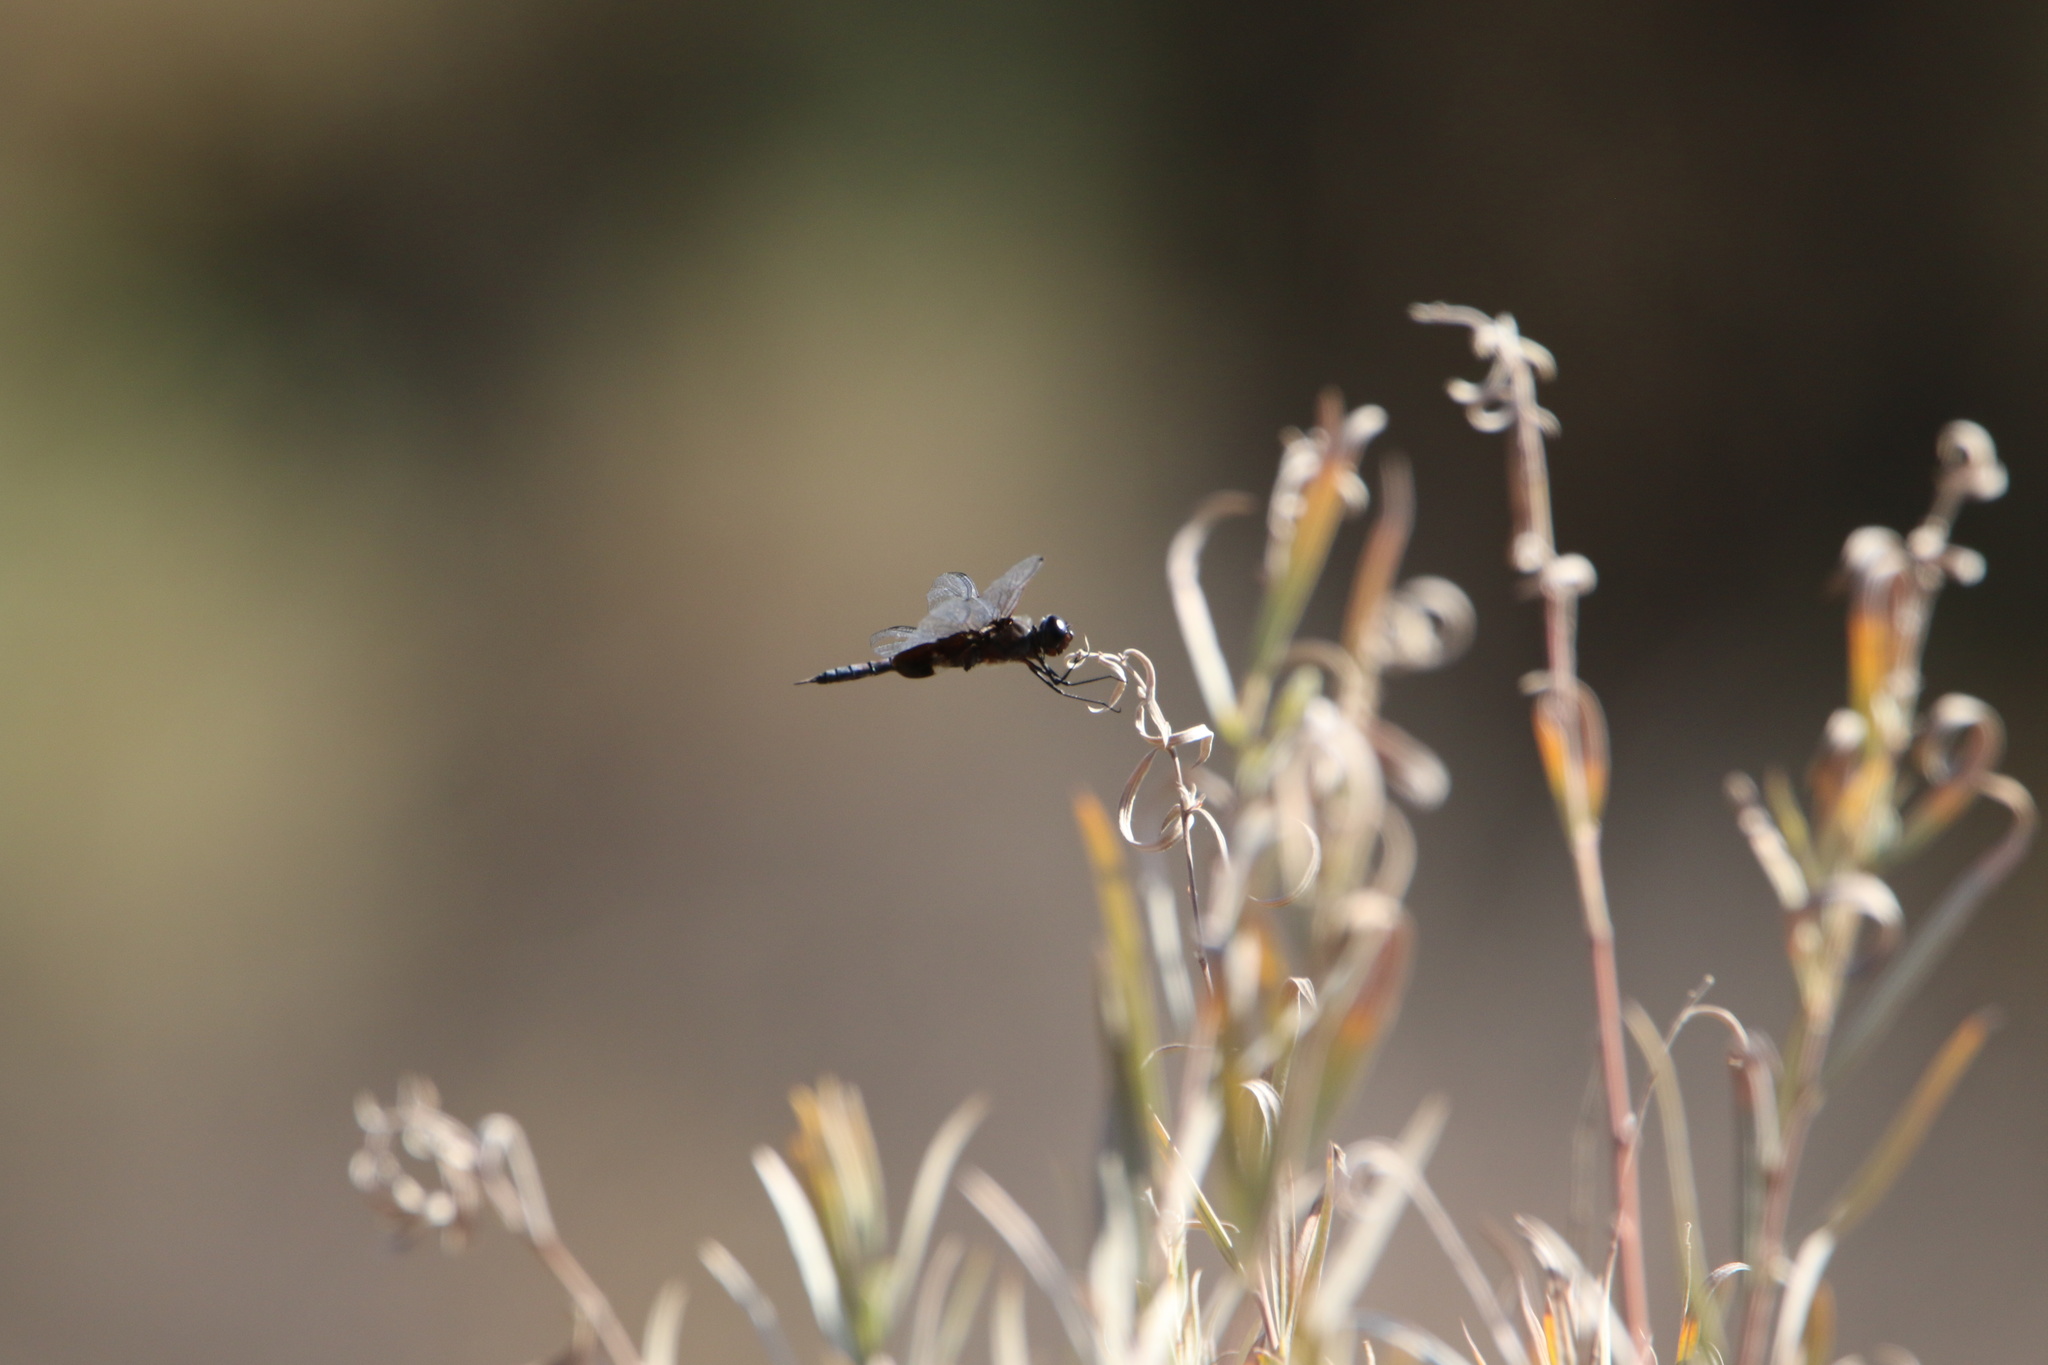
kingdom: Animalia
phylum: Arthropoda
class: Insecta
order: Odonata
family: Libellulidae
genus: Tramea
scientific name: Tramea lacerata
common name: Black saddlebags
